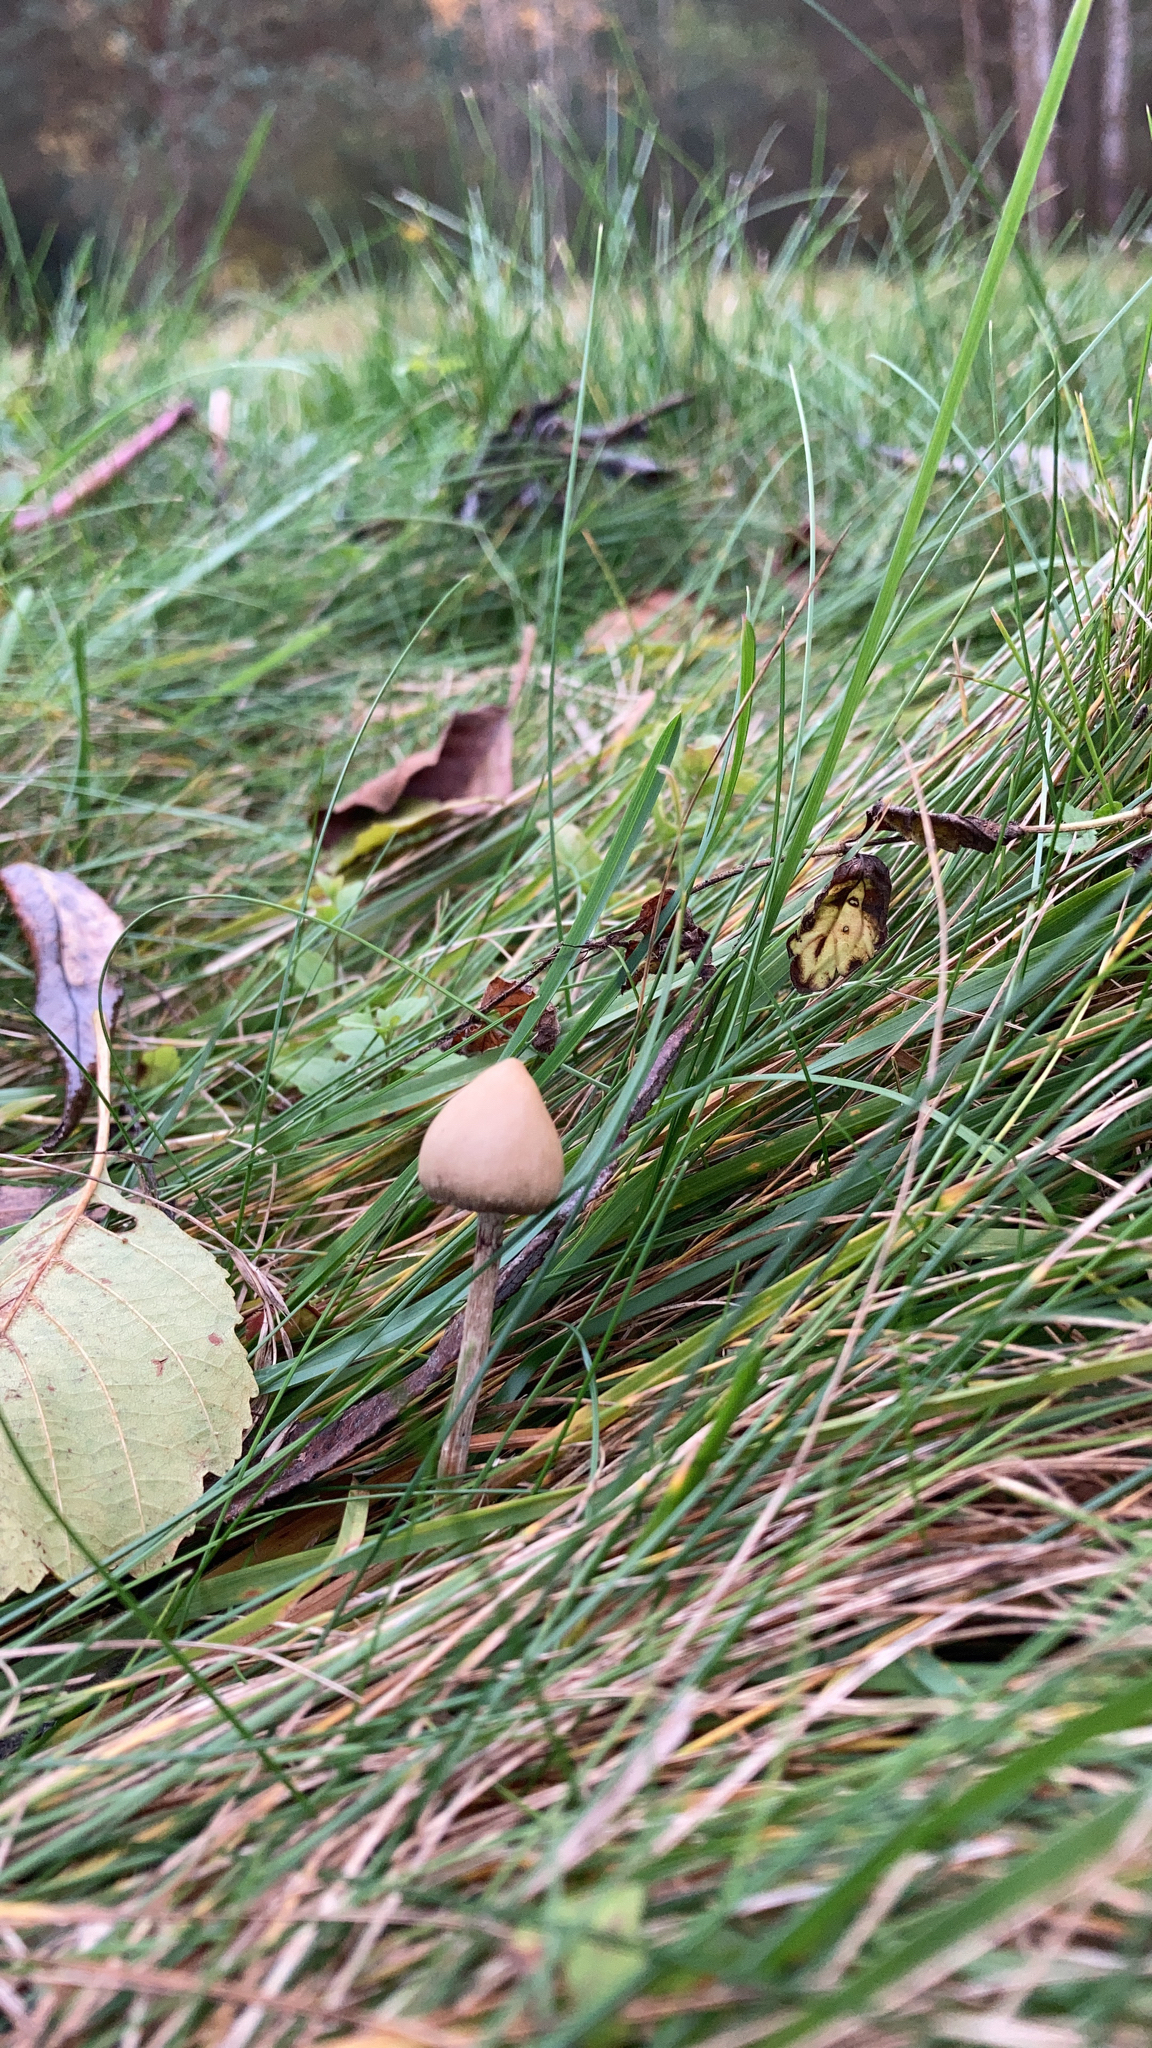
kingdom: Fungi
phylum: Basidiomycota
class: Agaricomycetes
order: Agaricales
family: Hymenogastraceae
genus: Psilocybe
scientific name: Psilocybe semilanceata
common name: Liberty cap
